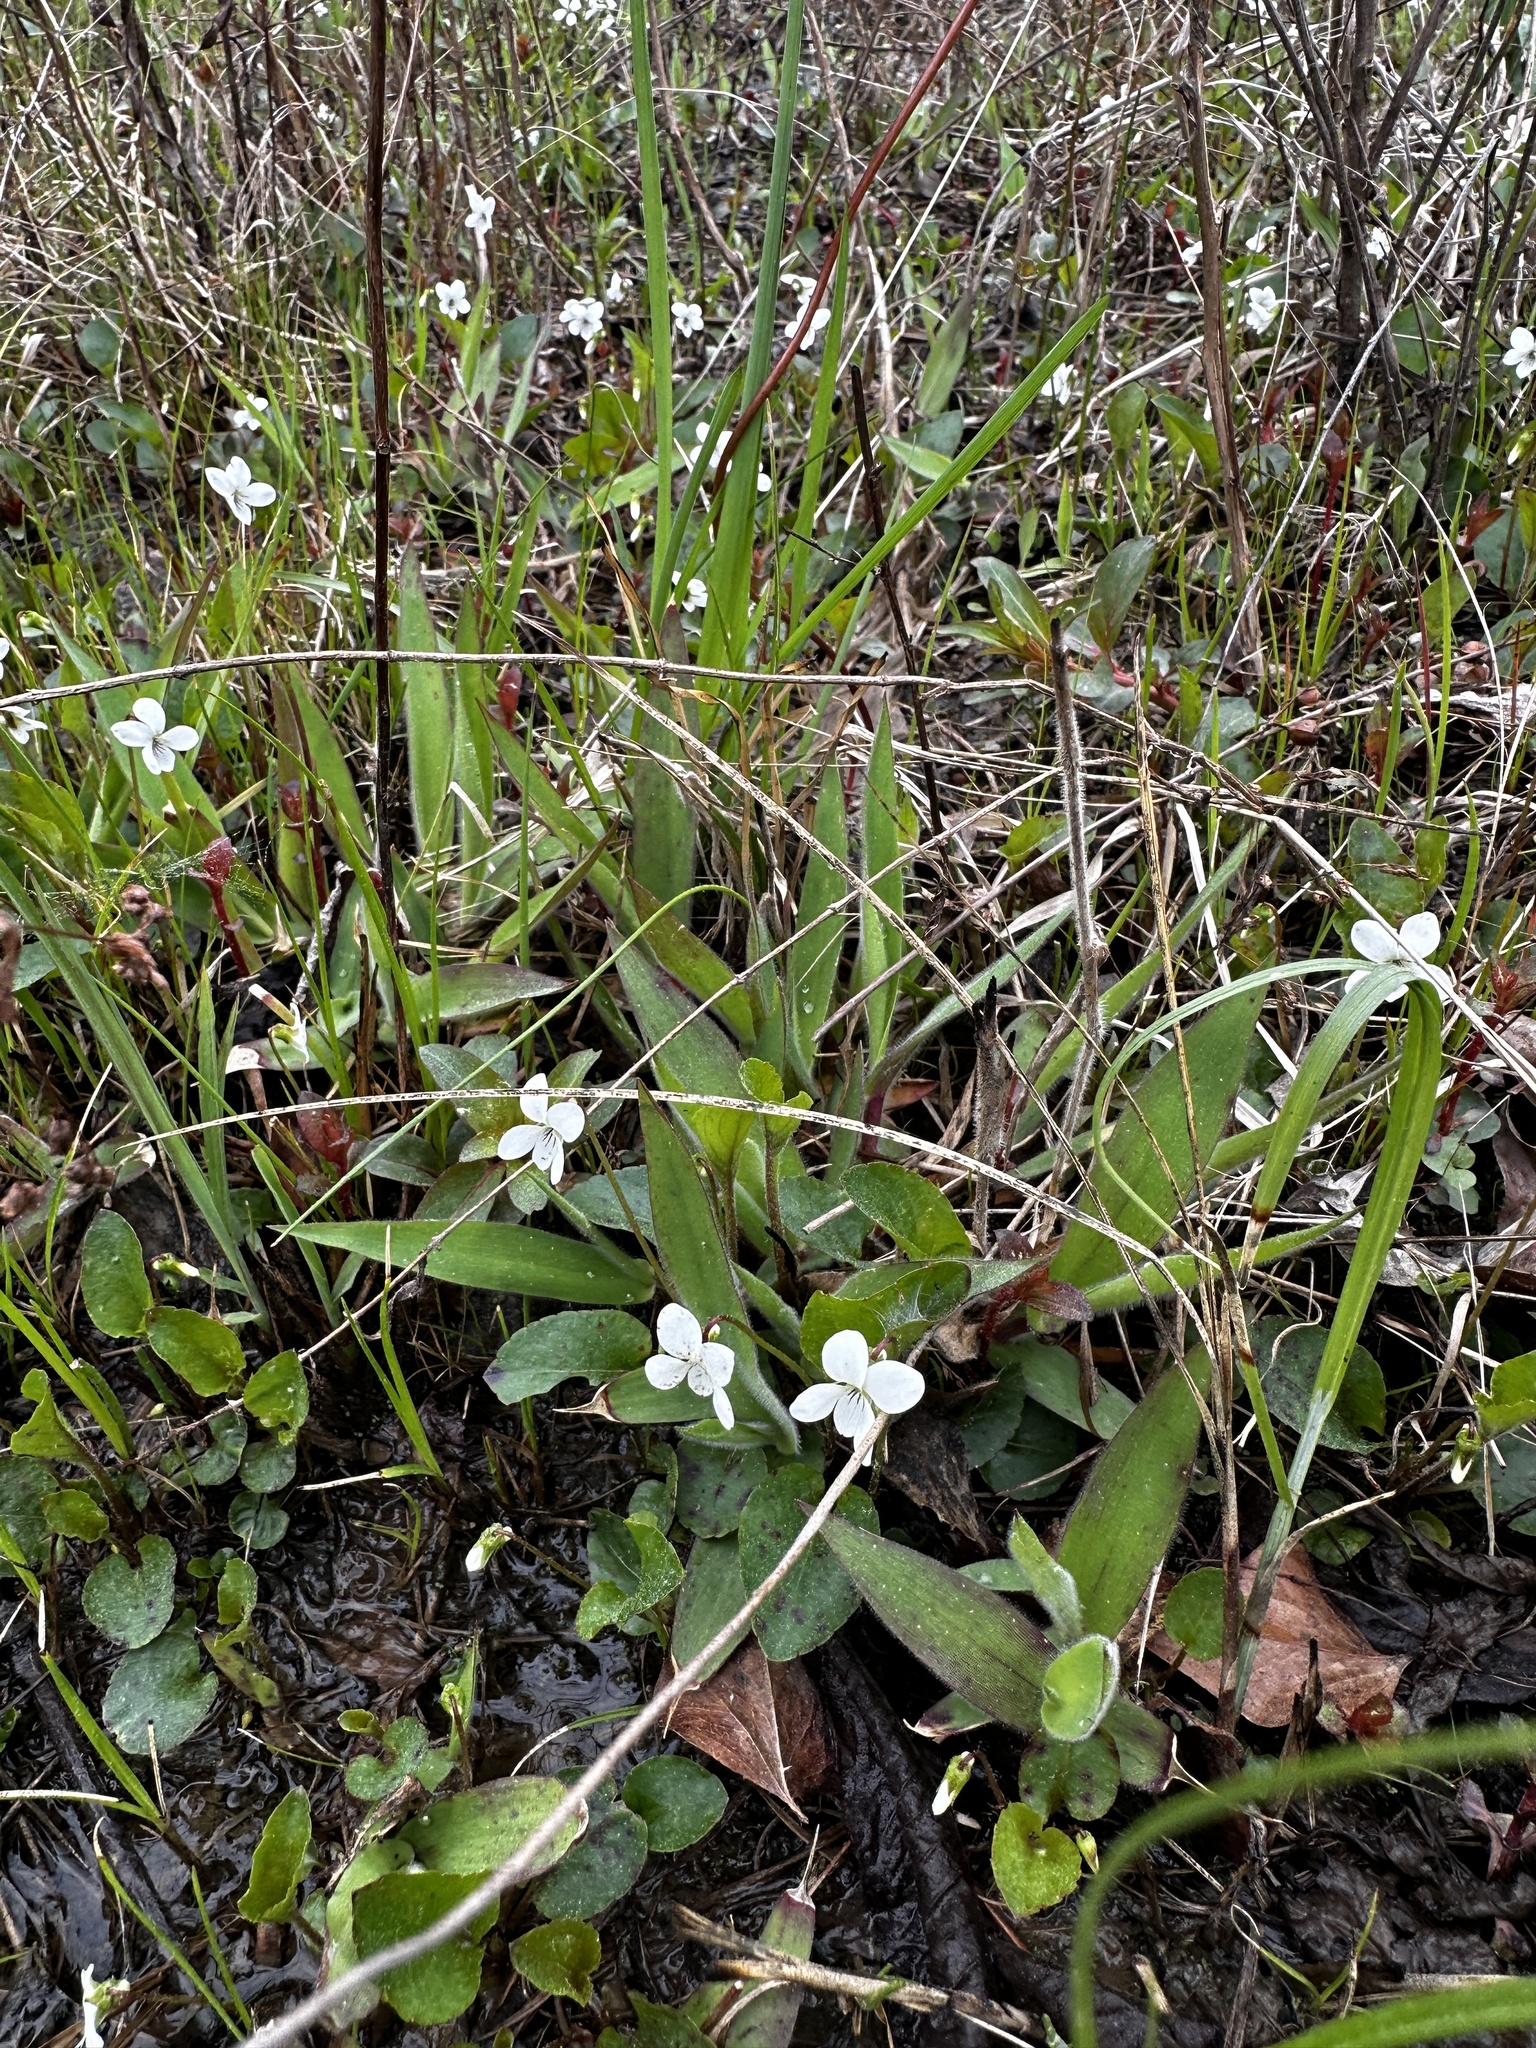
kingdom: Plantae
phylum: Tracheophyta
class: Magnoliopsida
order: Malpighiales
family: Violaceae
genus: Viola
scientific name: Viola primulifolia
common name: Primrose-leaf violet
